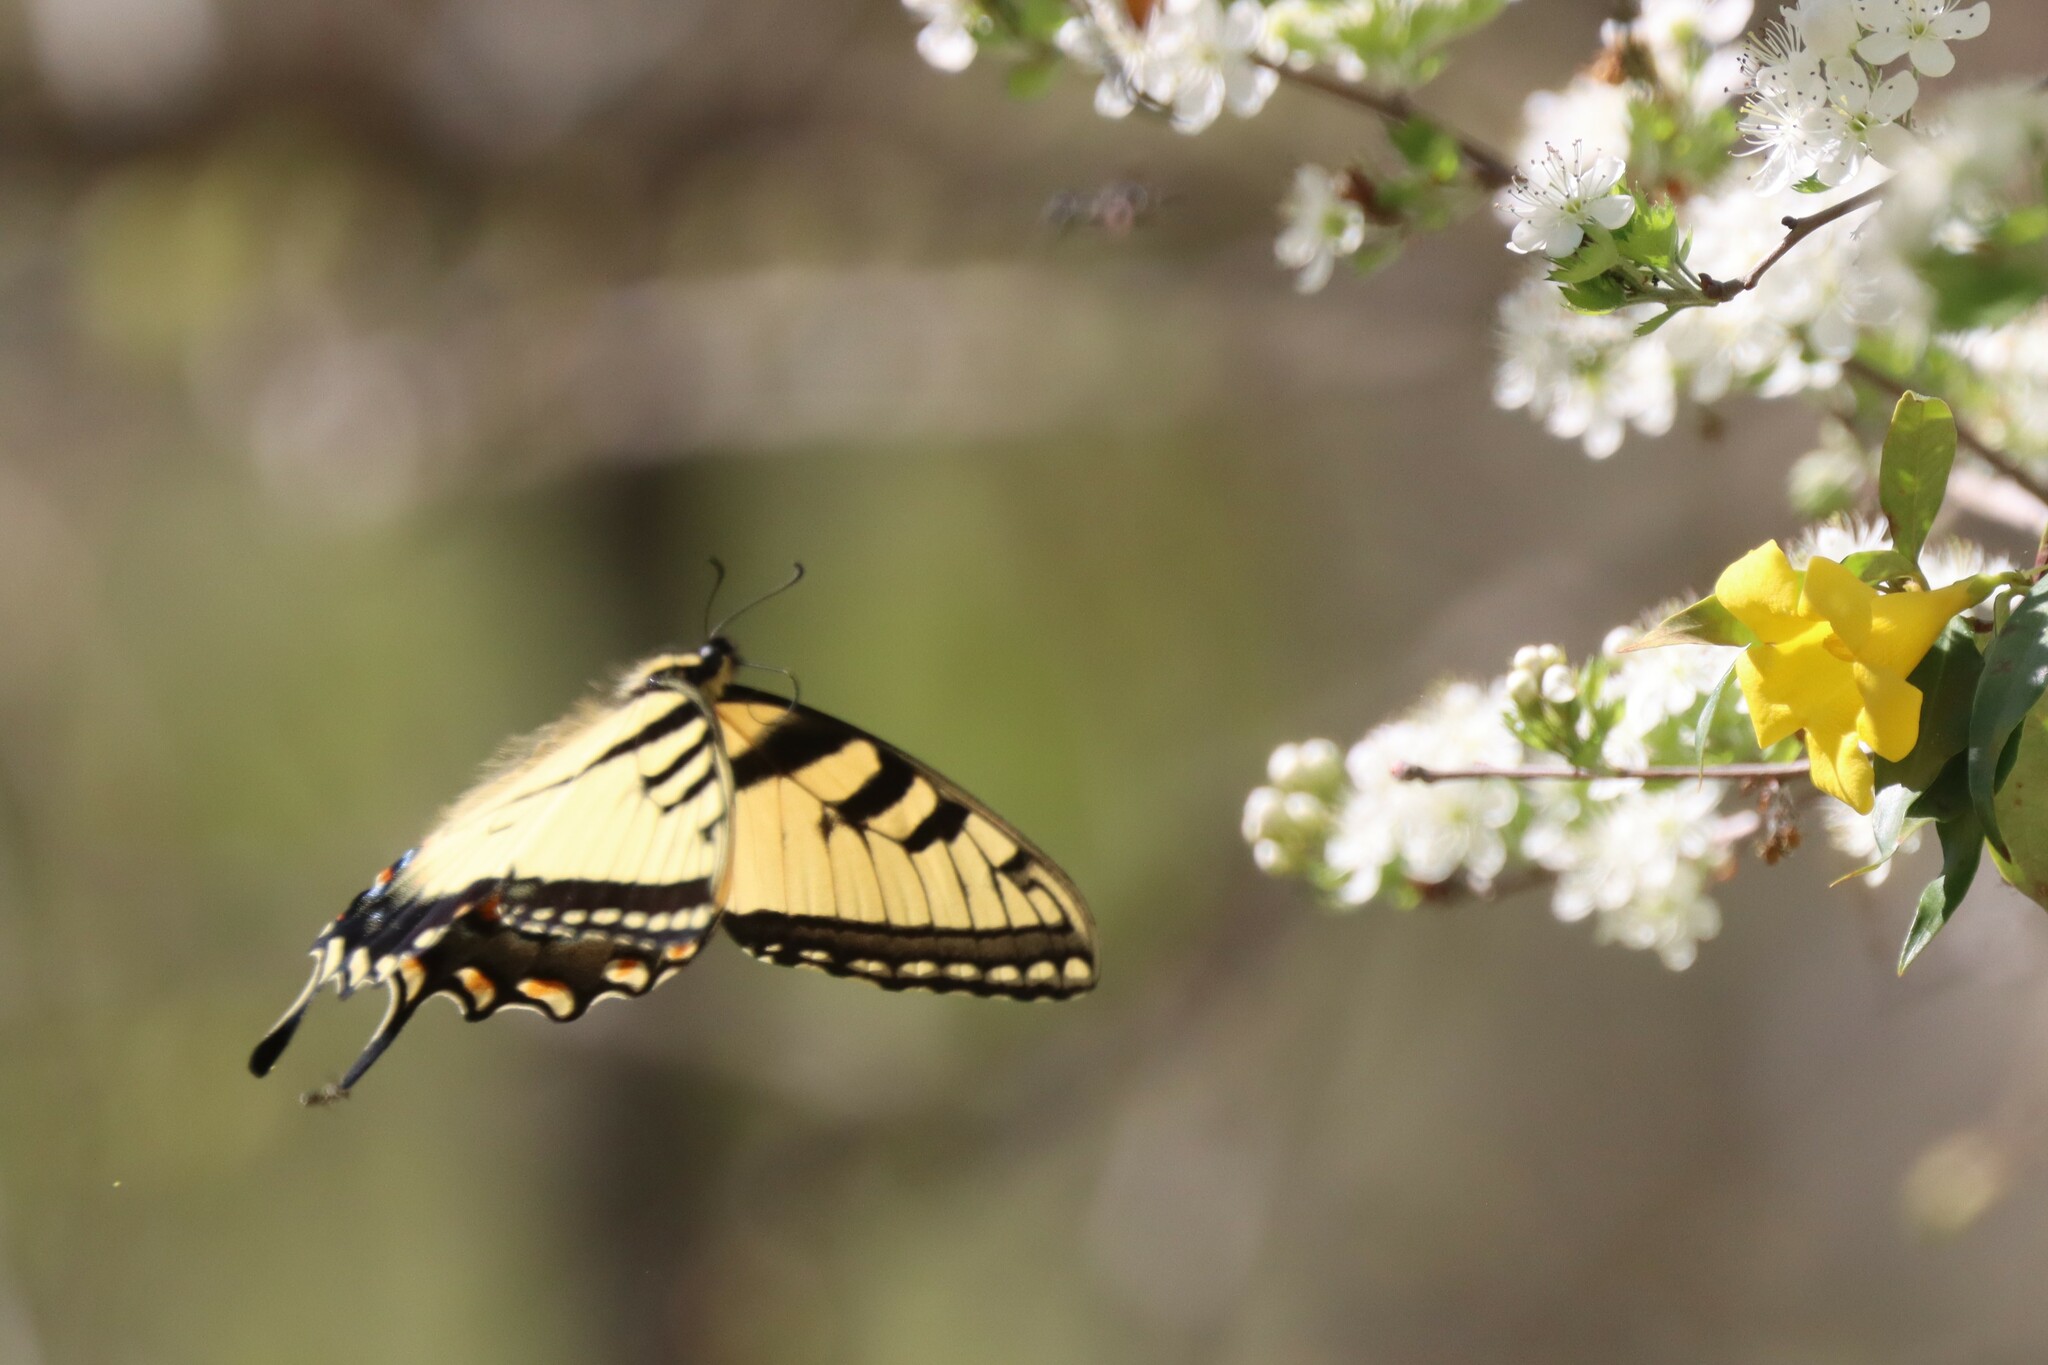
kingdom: Animalia
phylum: Arthropoda
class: Insecta
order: Lepidoptera
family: Papilionidae
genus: Papilio
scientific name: Papilio glaucus
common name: Tiger swallowtail
